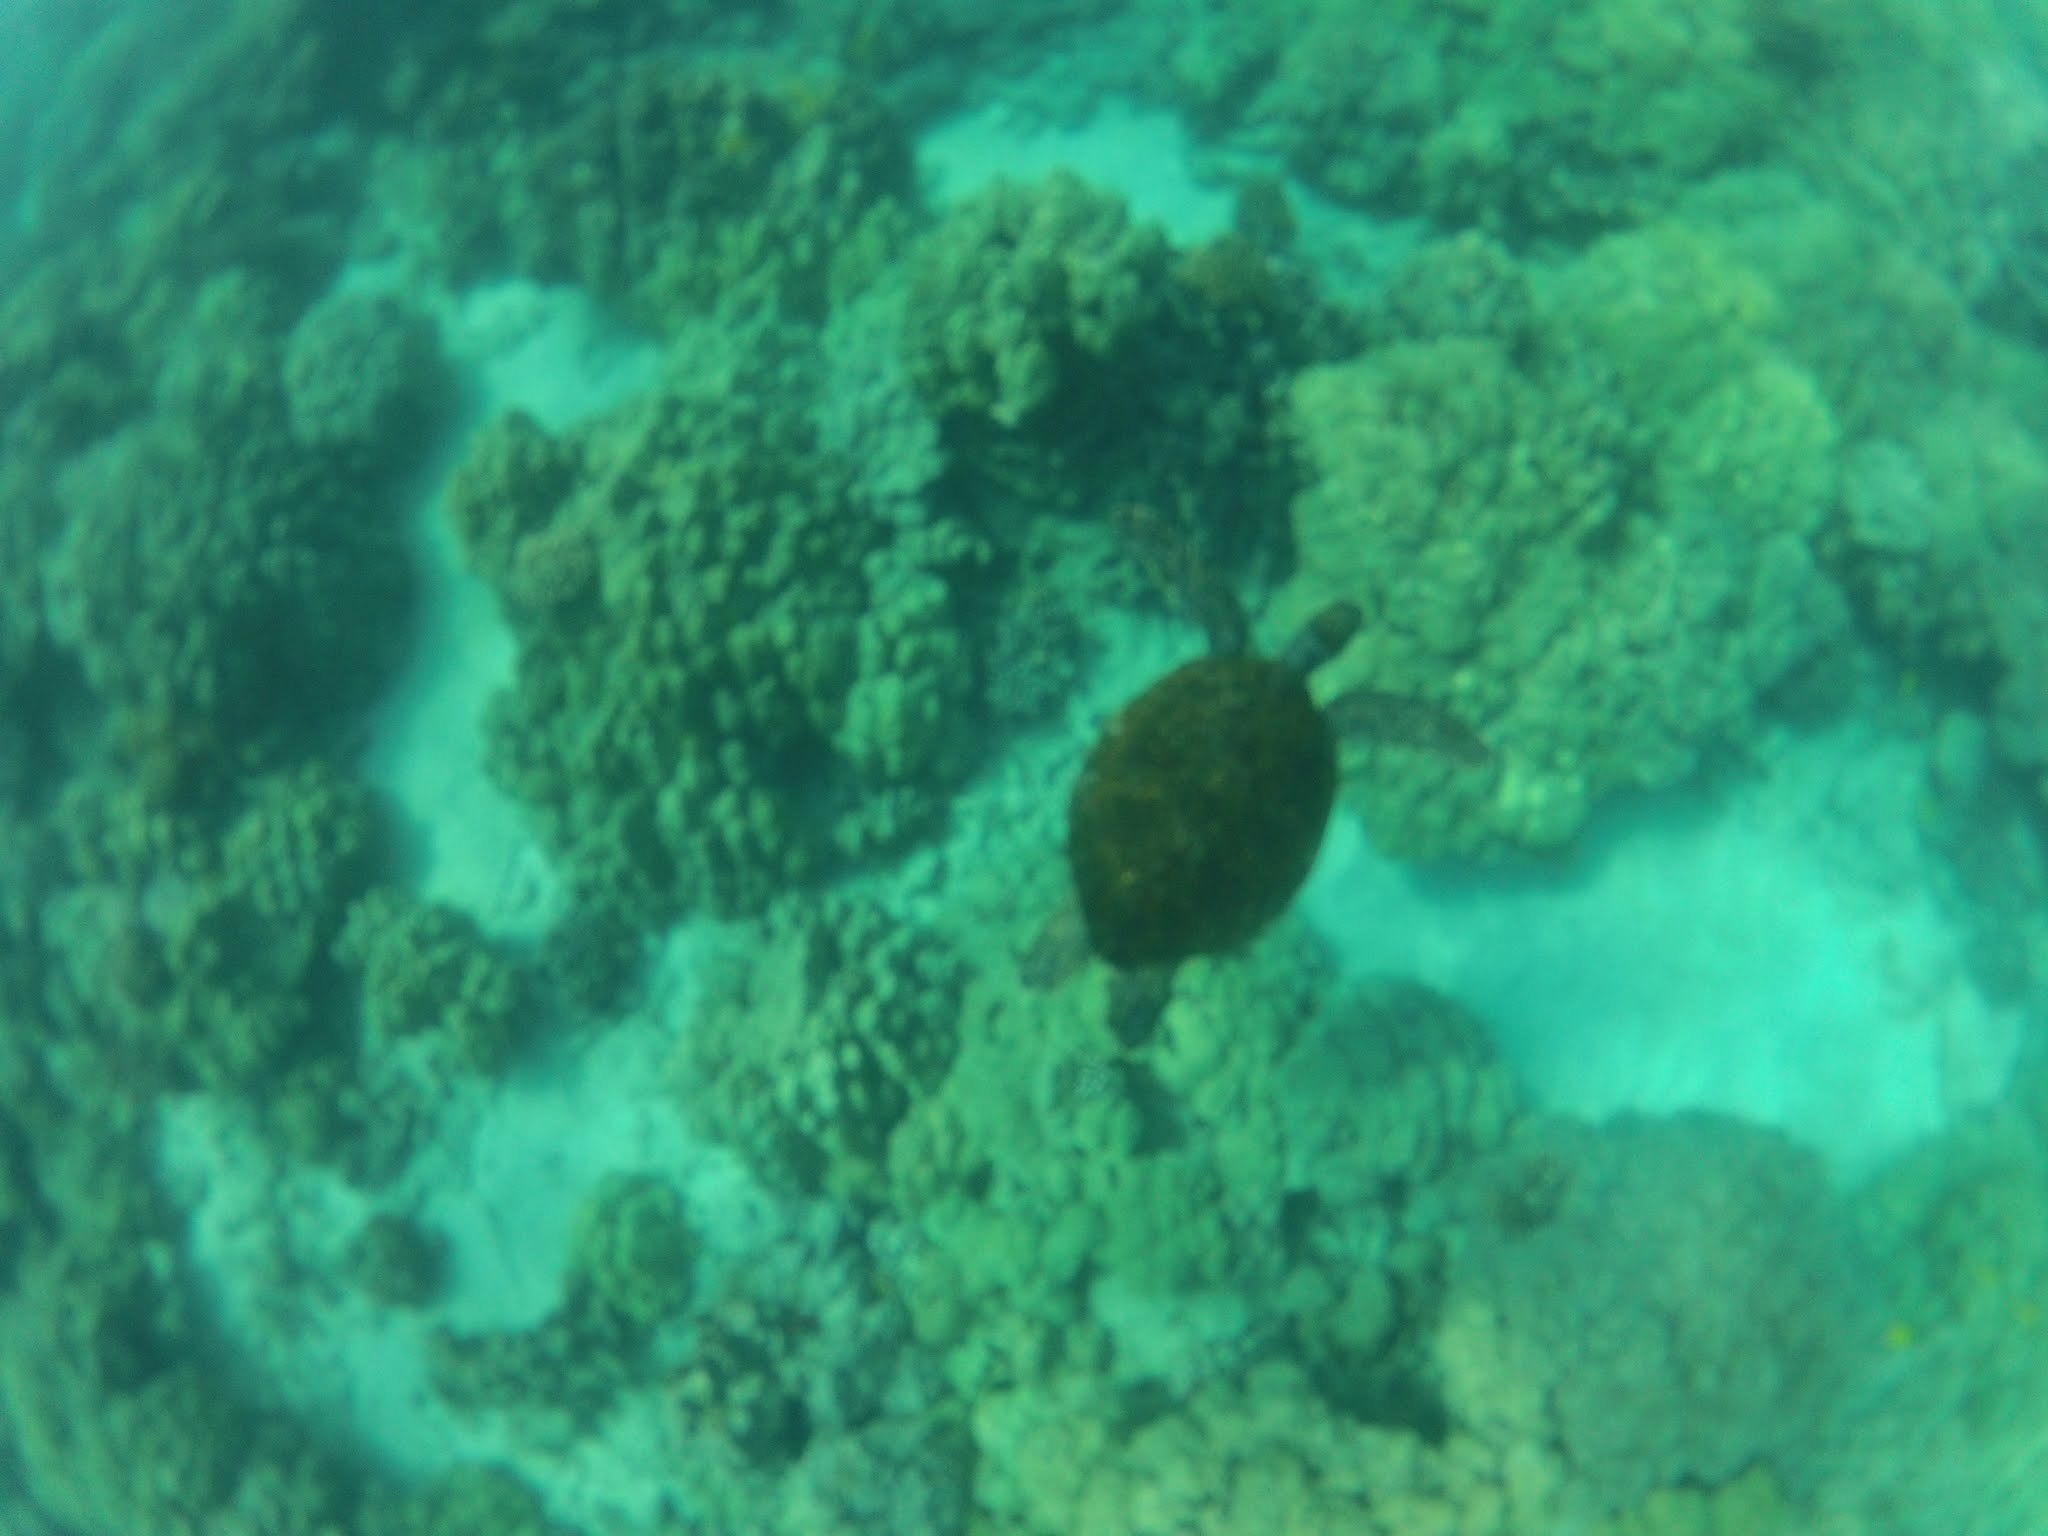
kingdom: Animalia
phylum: Chordata
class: Testudines
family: Cheloniidae
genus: Chelonia
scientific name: Chelonia mydas
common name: Green turtle
